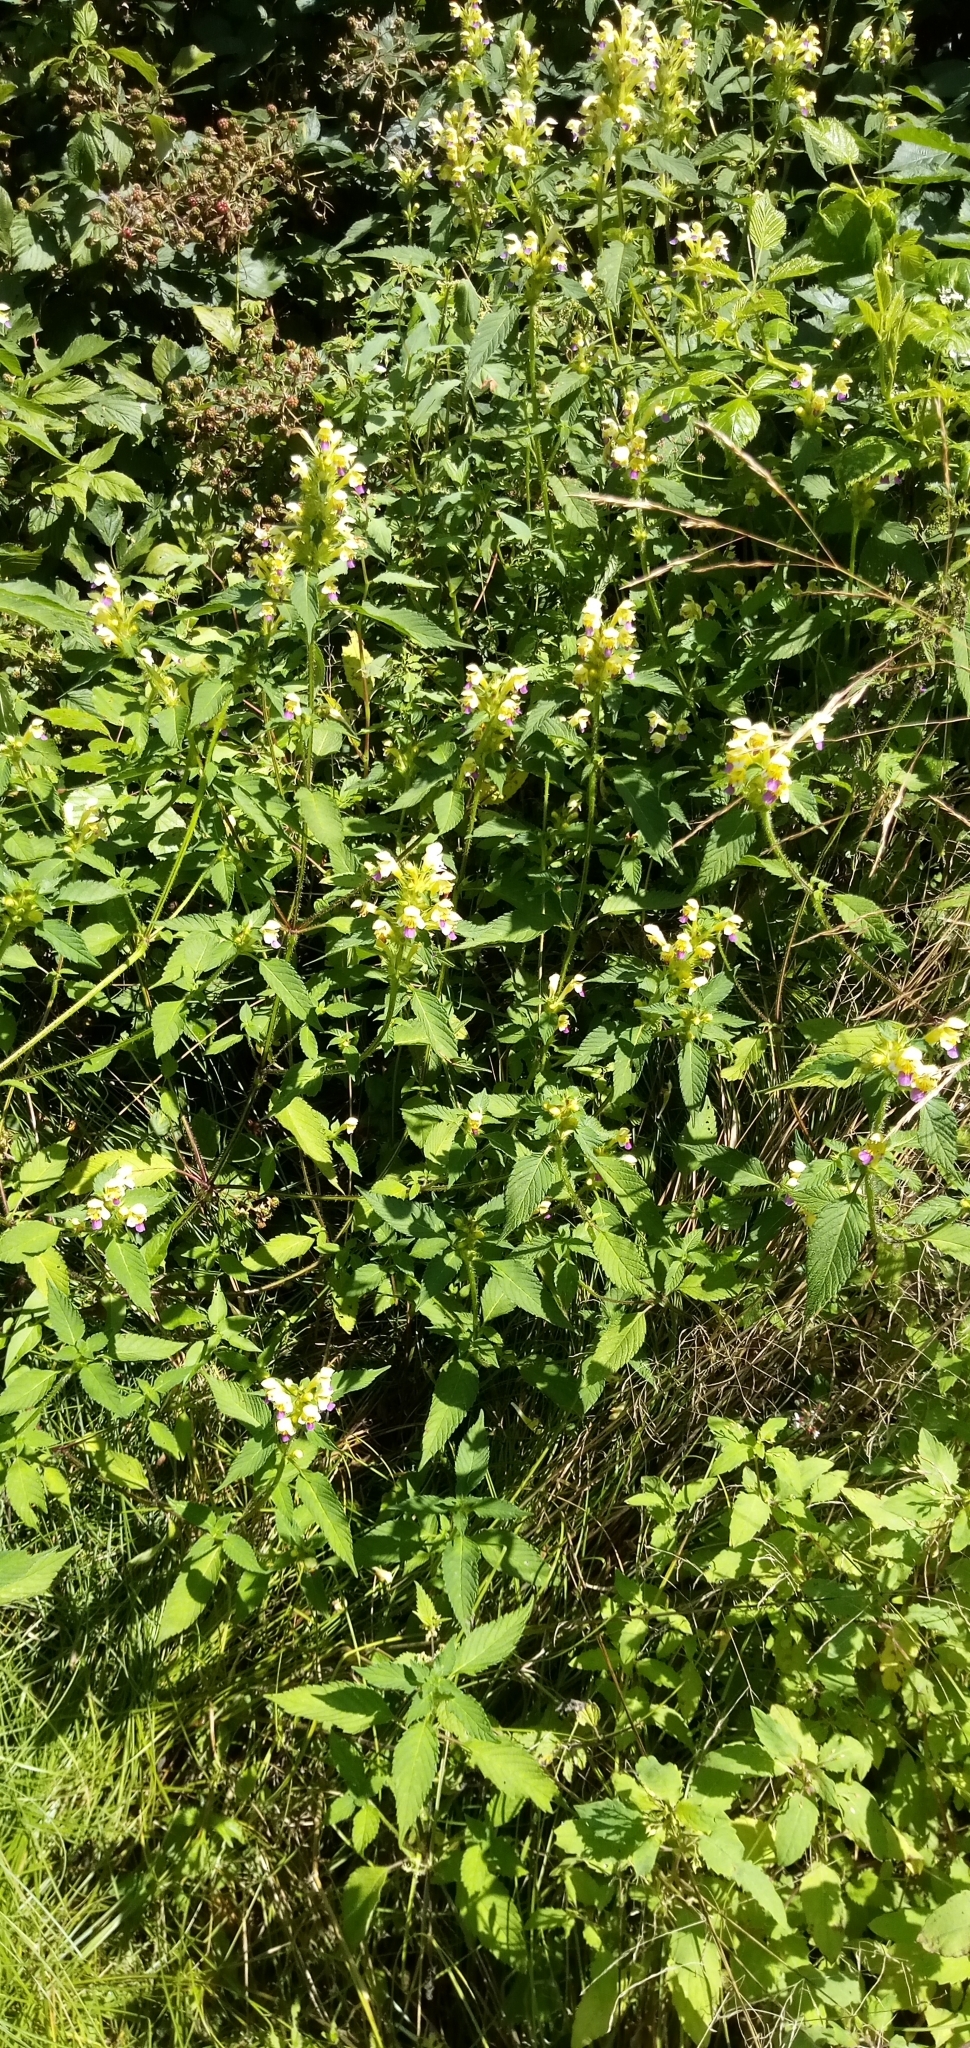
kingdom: Plantae
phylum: Tracheophyta
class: Magnoliopsida
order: Lamiales
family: Lamiaceae
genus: Galeopsis
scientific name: Galeopsis speciosa
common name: Large-flowered hemp-nettle
